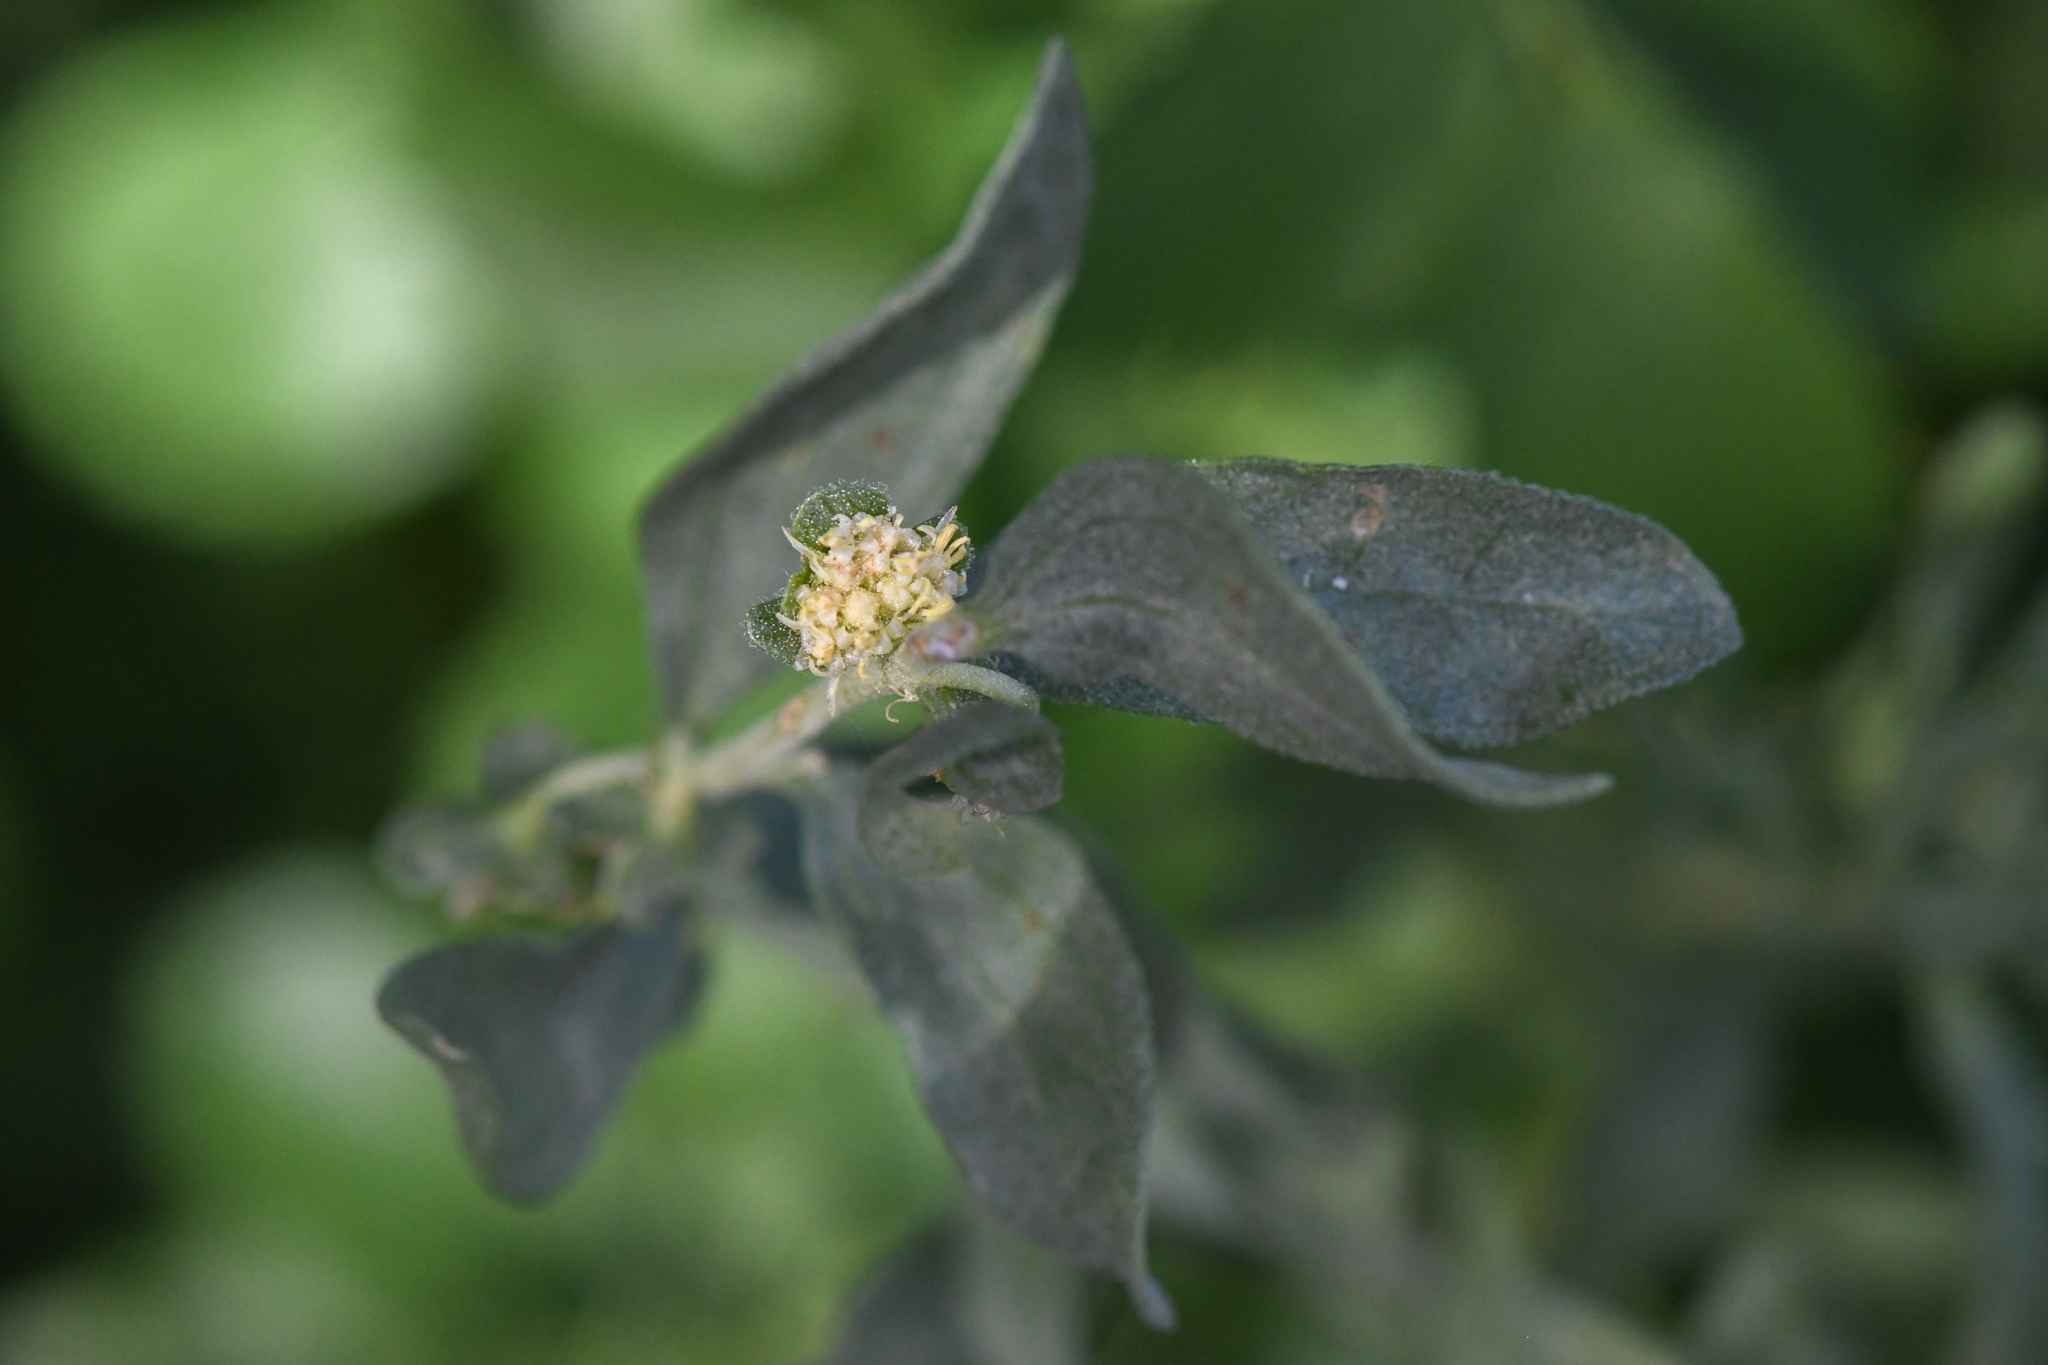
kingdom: Plantae
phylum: Tracheophyta
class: Magnoliopsida
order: Asterales
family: Asteraceae
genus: Iva
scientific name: Iva axillaris
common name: Poverty sumpweed
